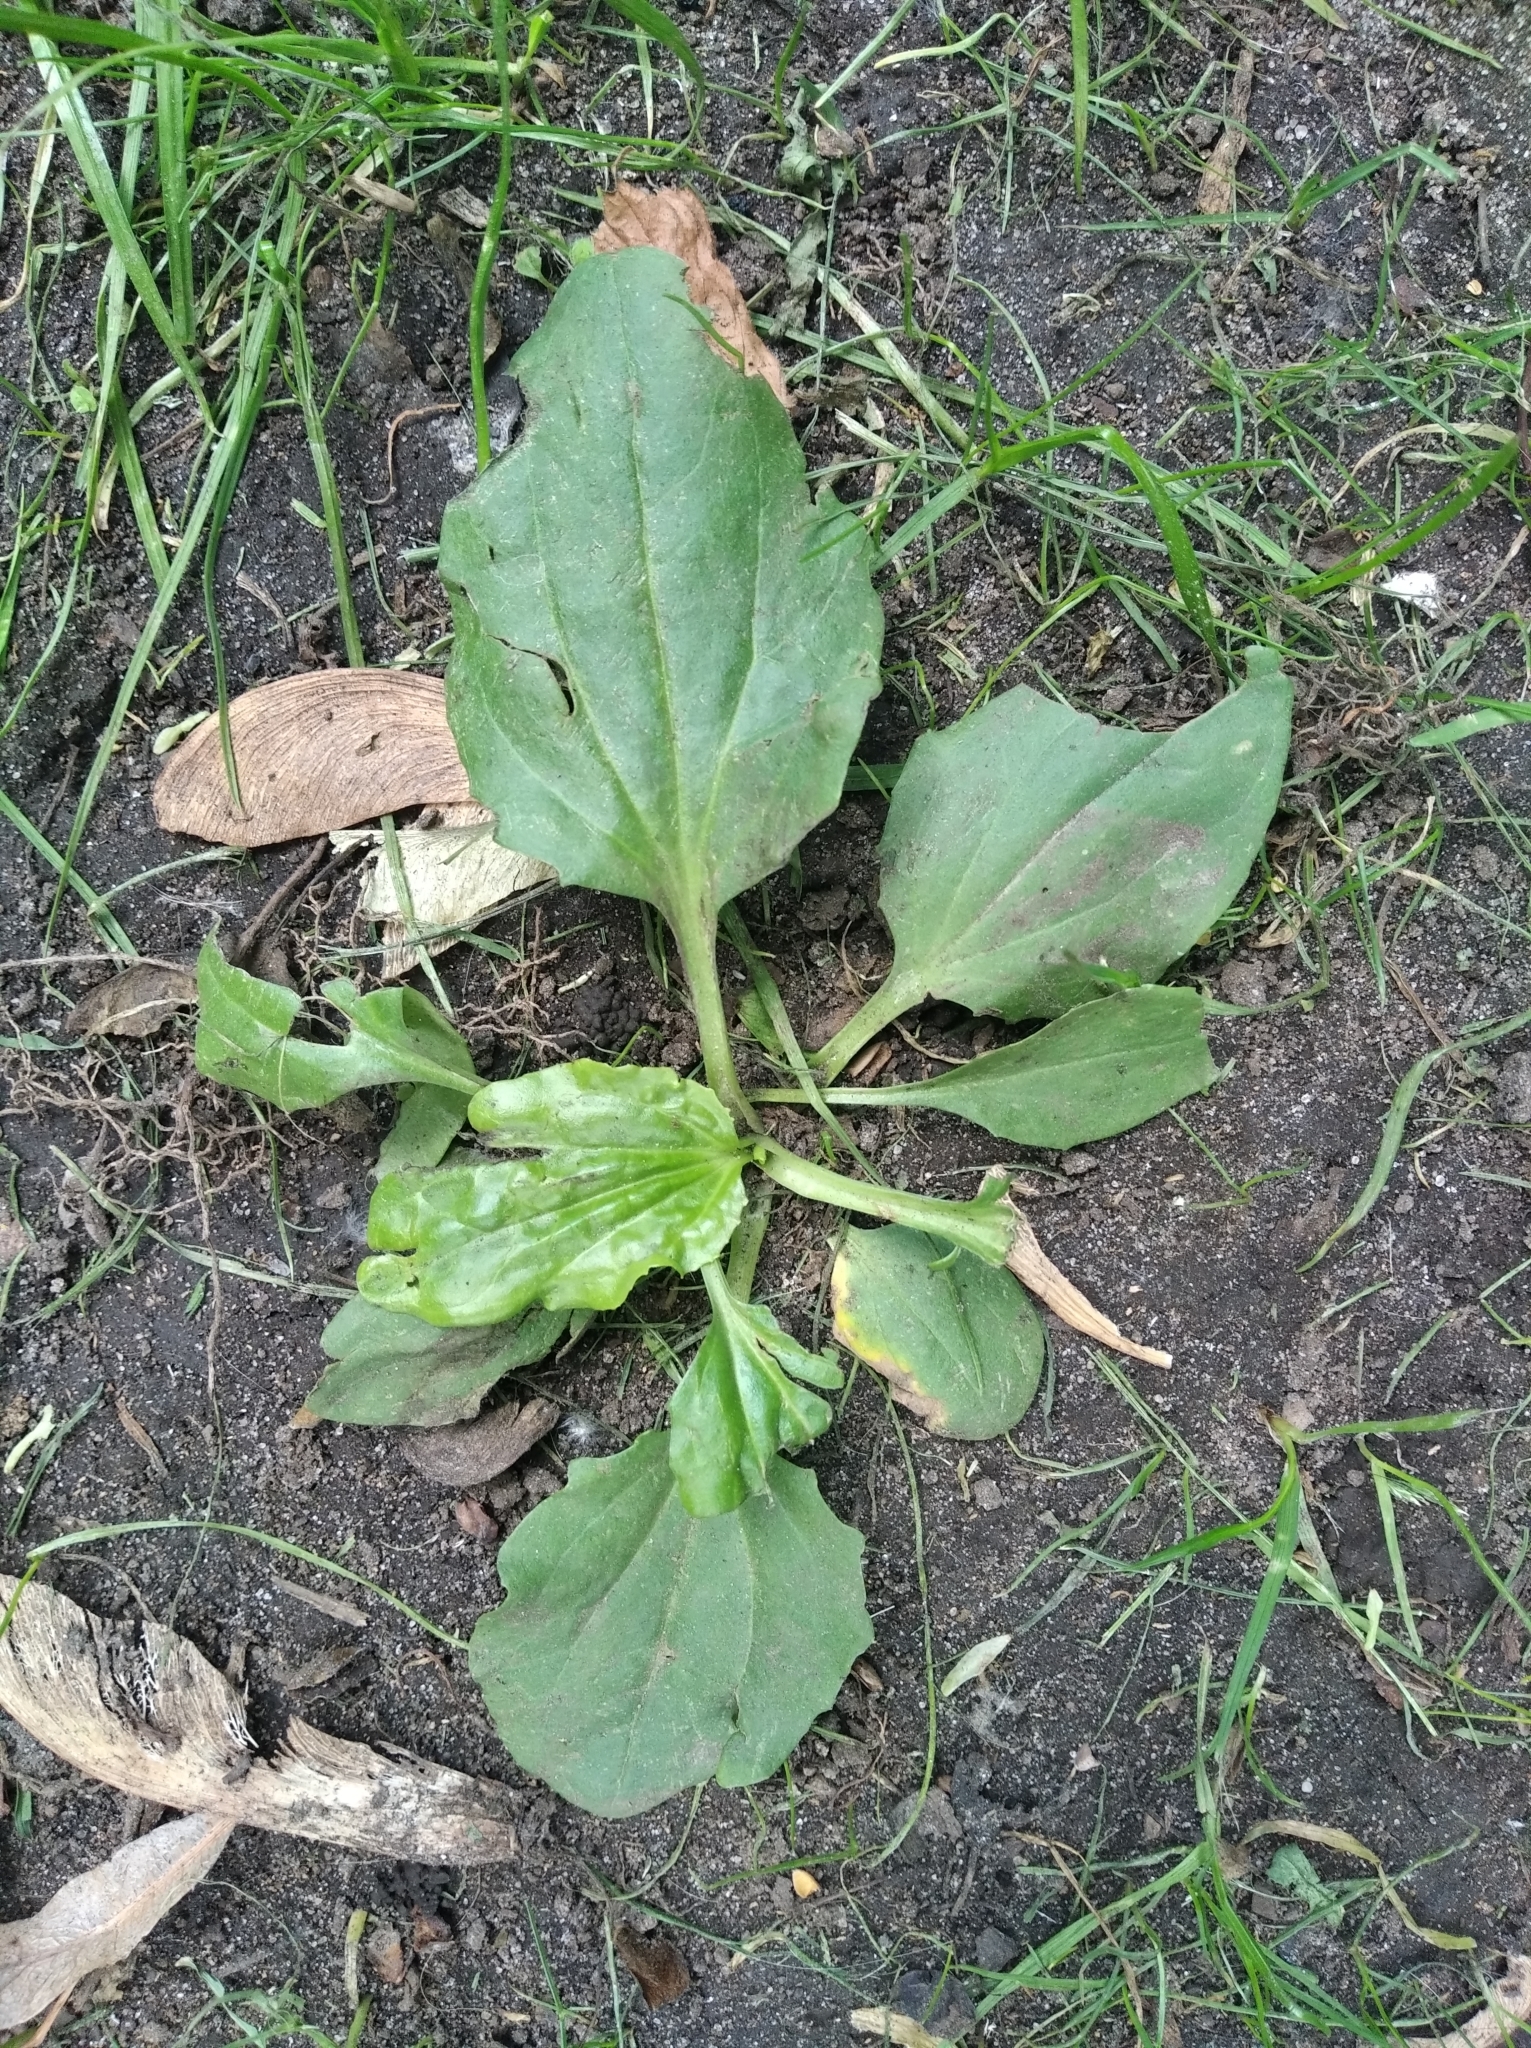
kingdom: Plantae
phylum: Tracheophyta
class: Magnoliopsida
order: Lamiales
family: Plantaginaceae
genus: Plantago
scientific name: Plantago major
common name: Common plantain
